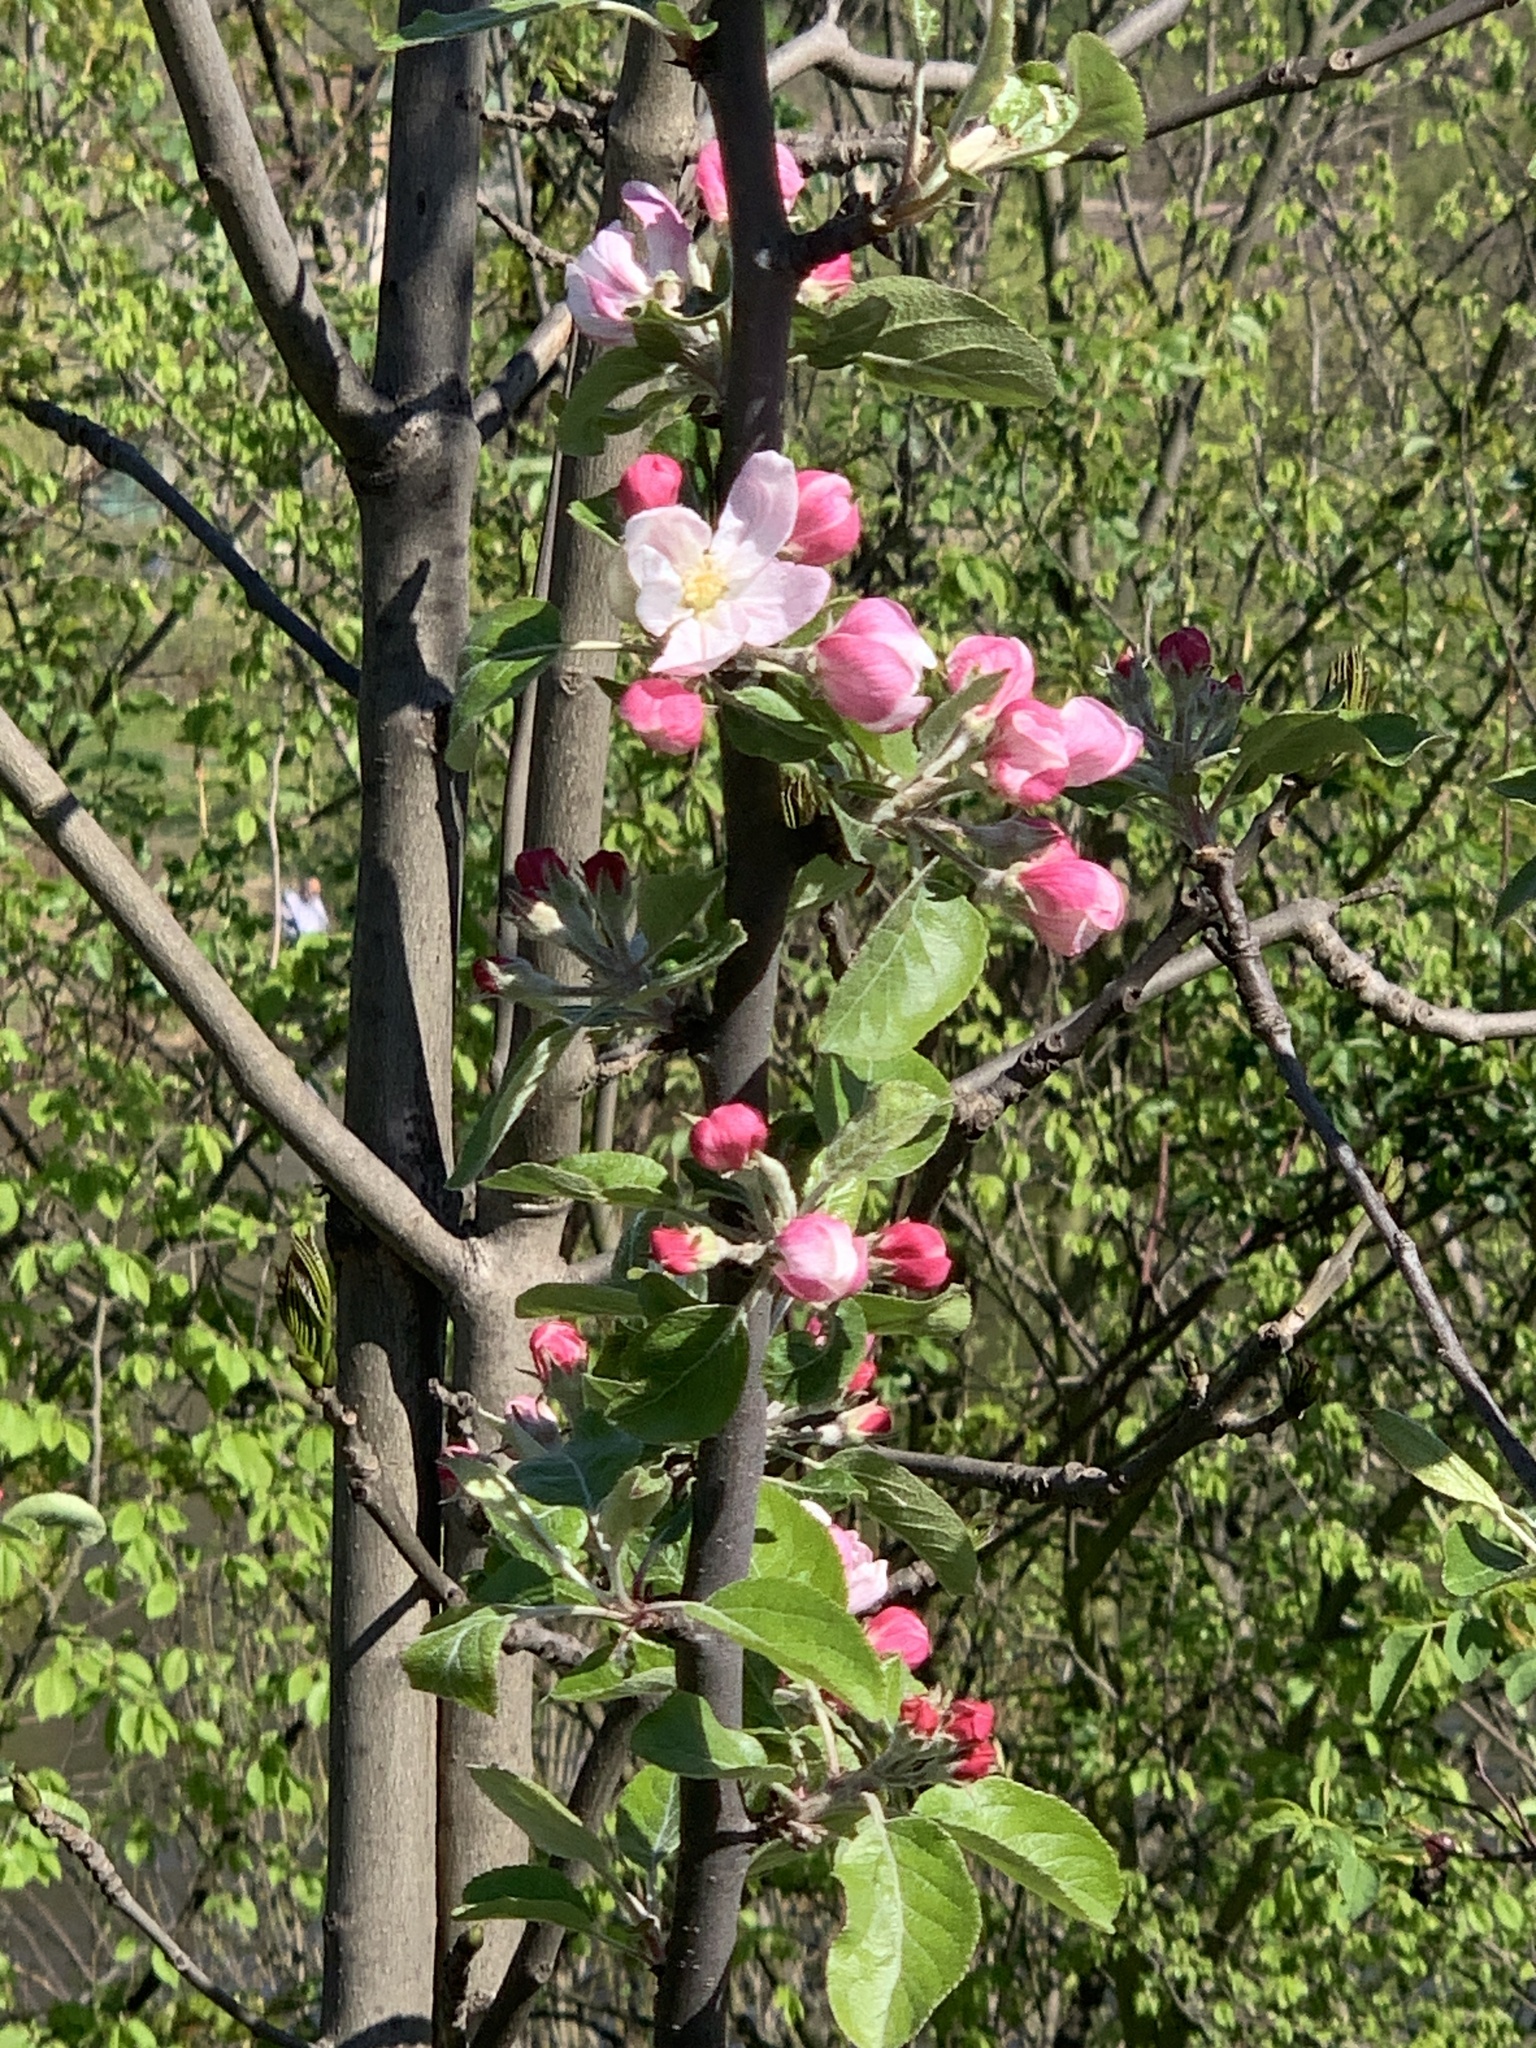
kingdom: Plantae
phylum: Tracheophyta
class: Magnoliopsida
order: Rosales
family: Rosaceae
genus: Malus
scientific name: Malus domestica
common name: Apple
